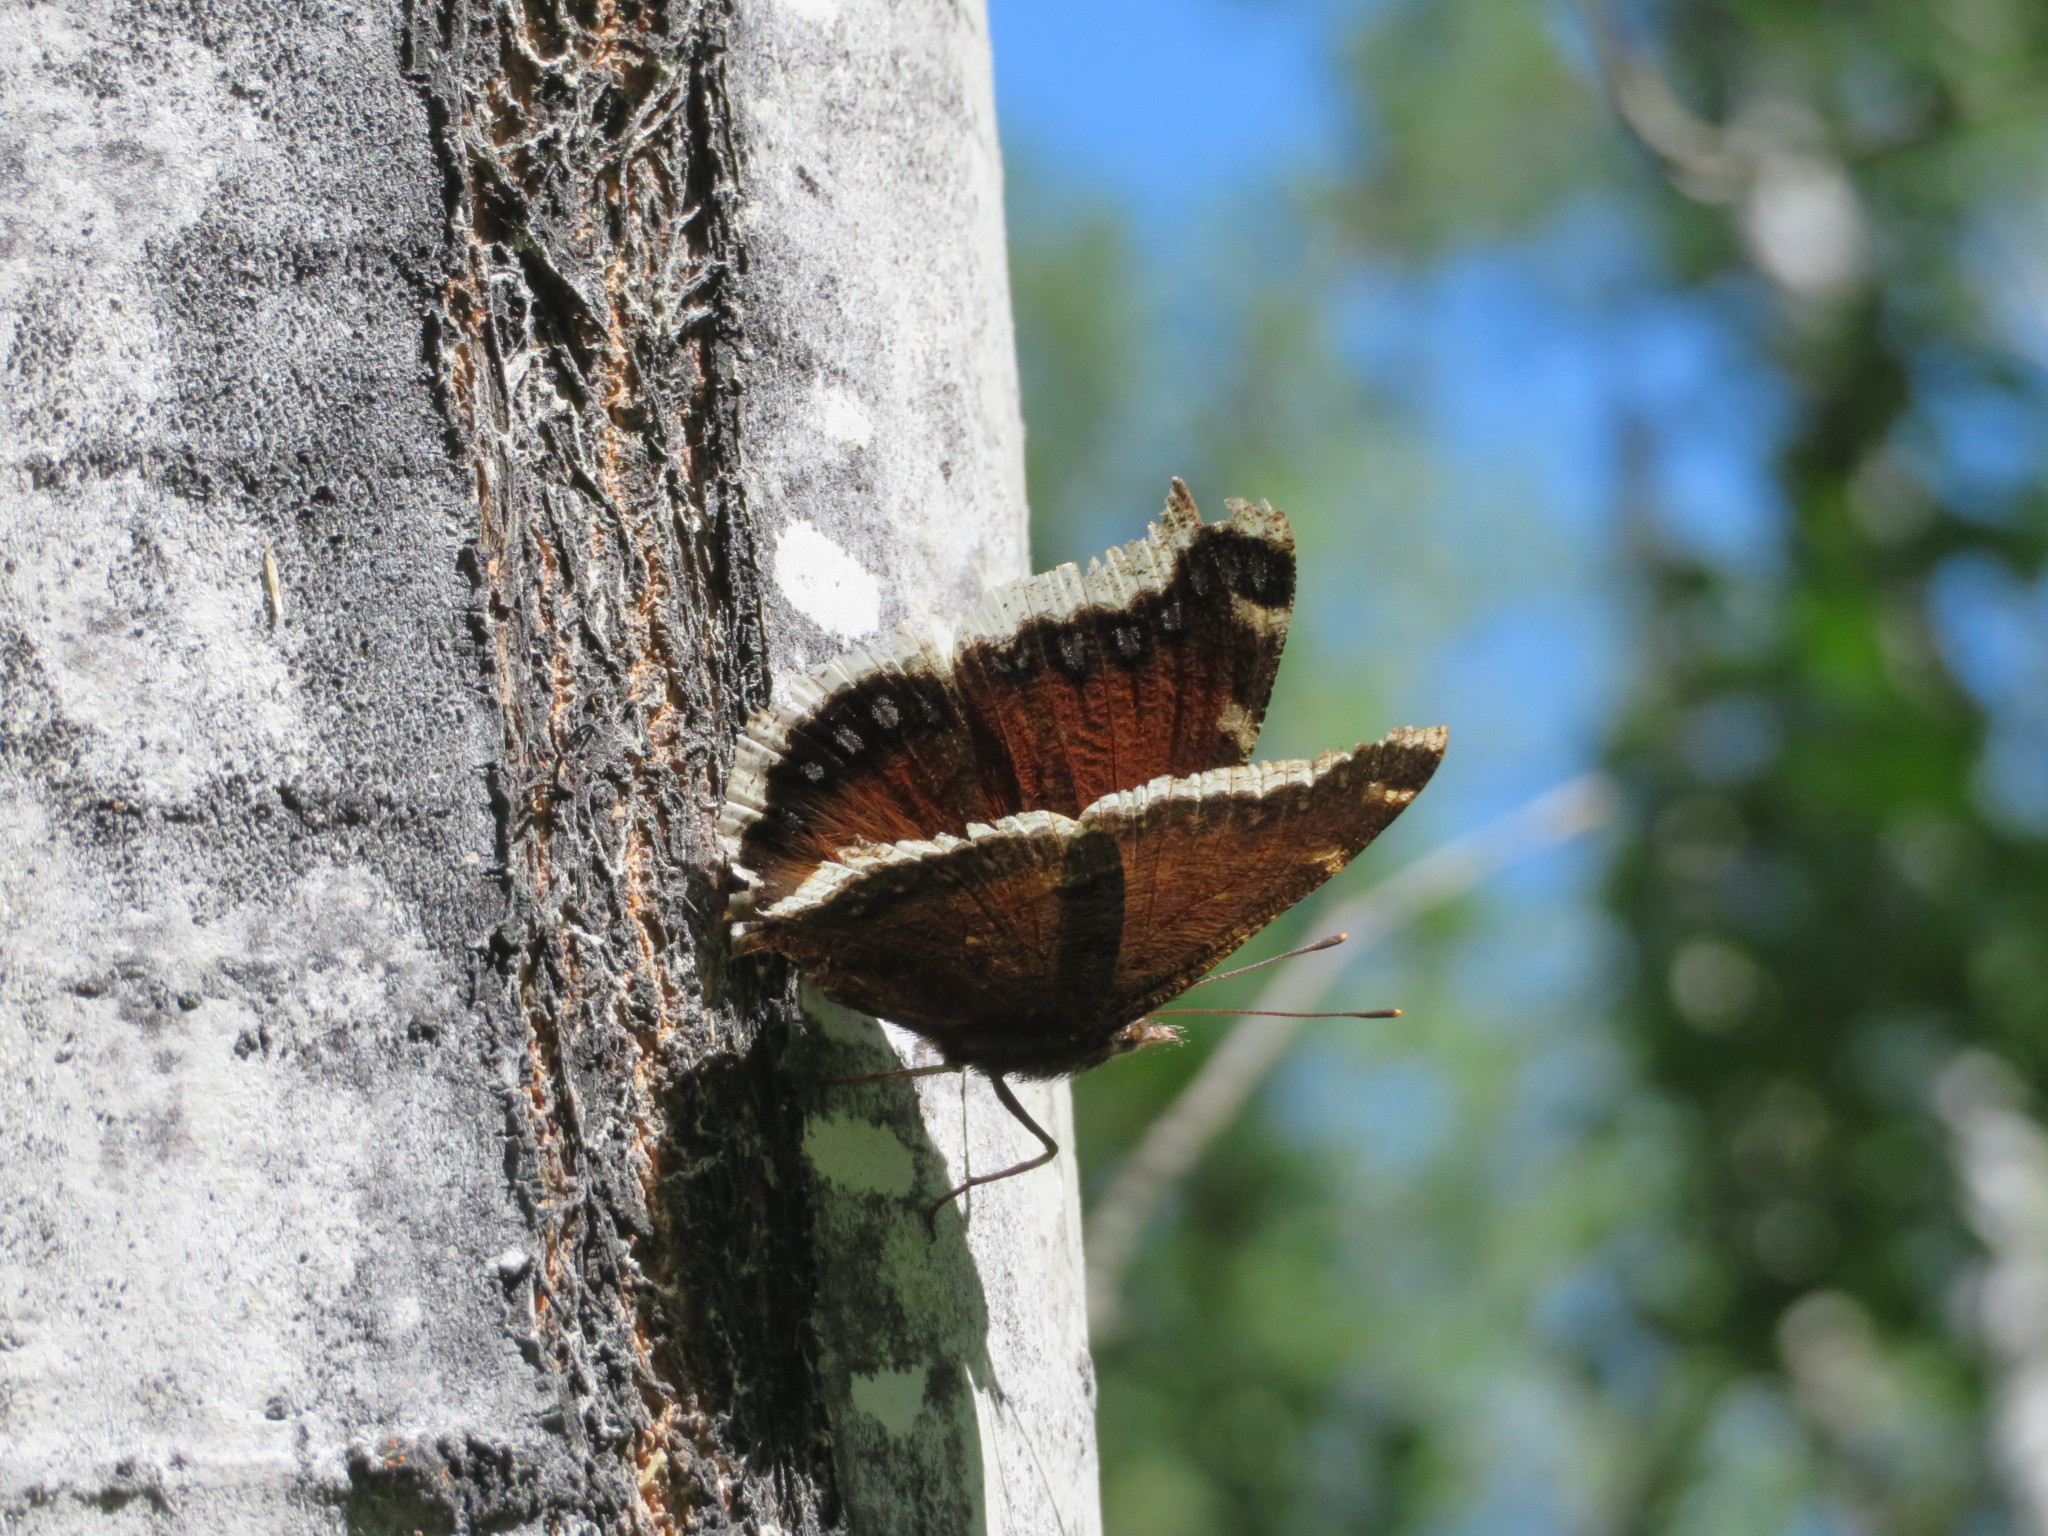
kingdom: Animalia
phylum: Arthropoda
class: Insecta
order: Lepidoptera
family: Nymphalidae
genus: Nymphalis
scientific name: Nymphalis antiopa
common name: Camberwell beauty
